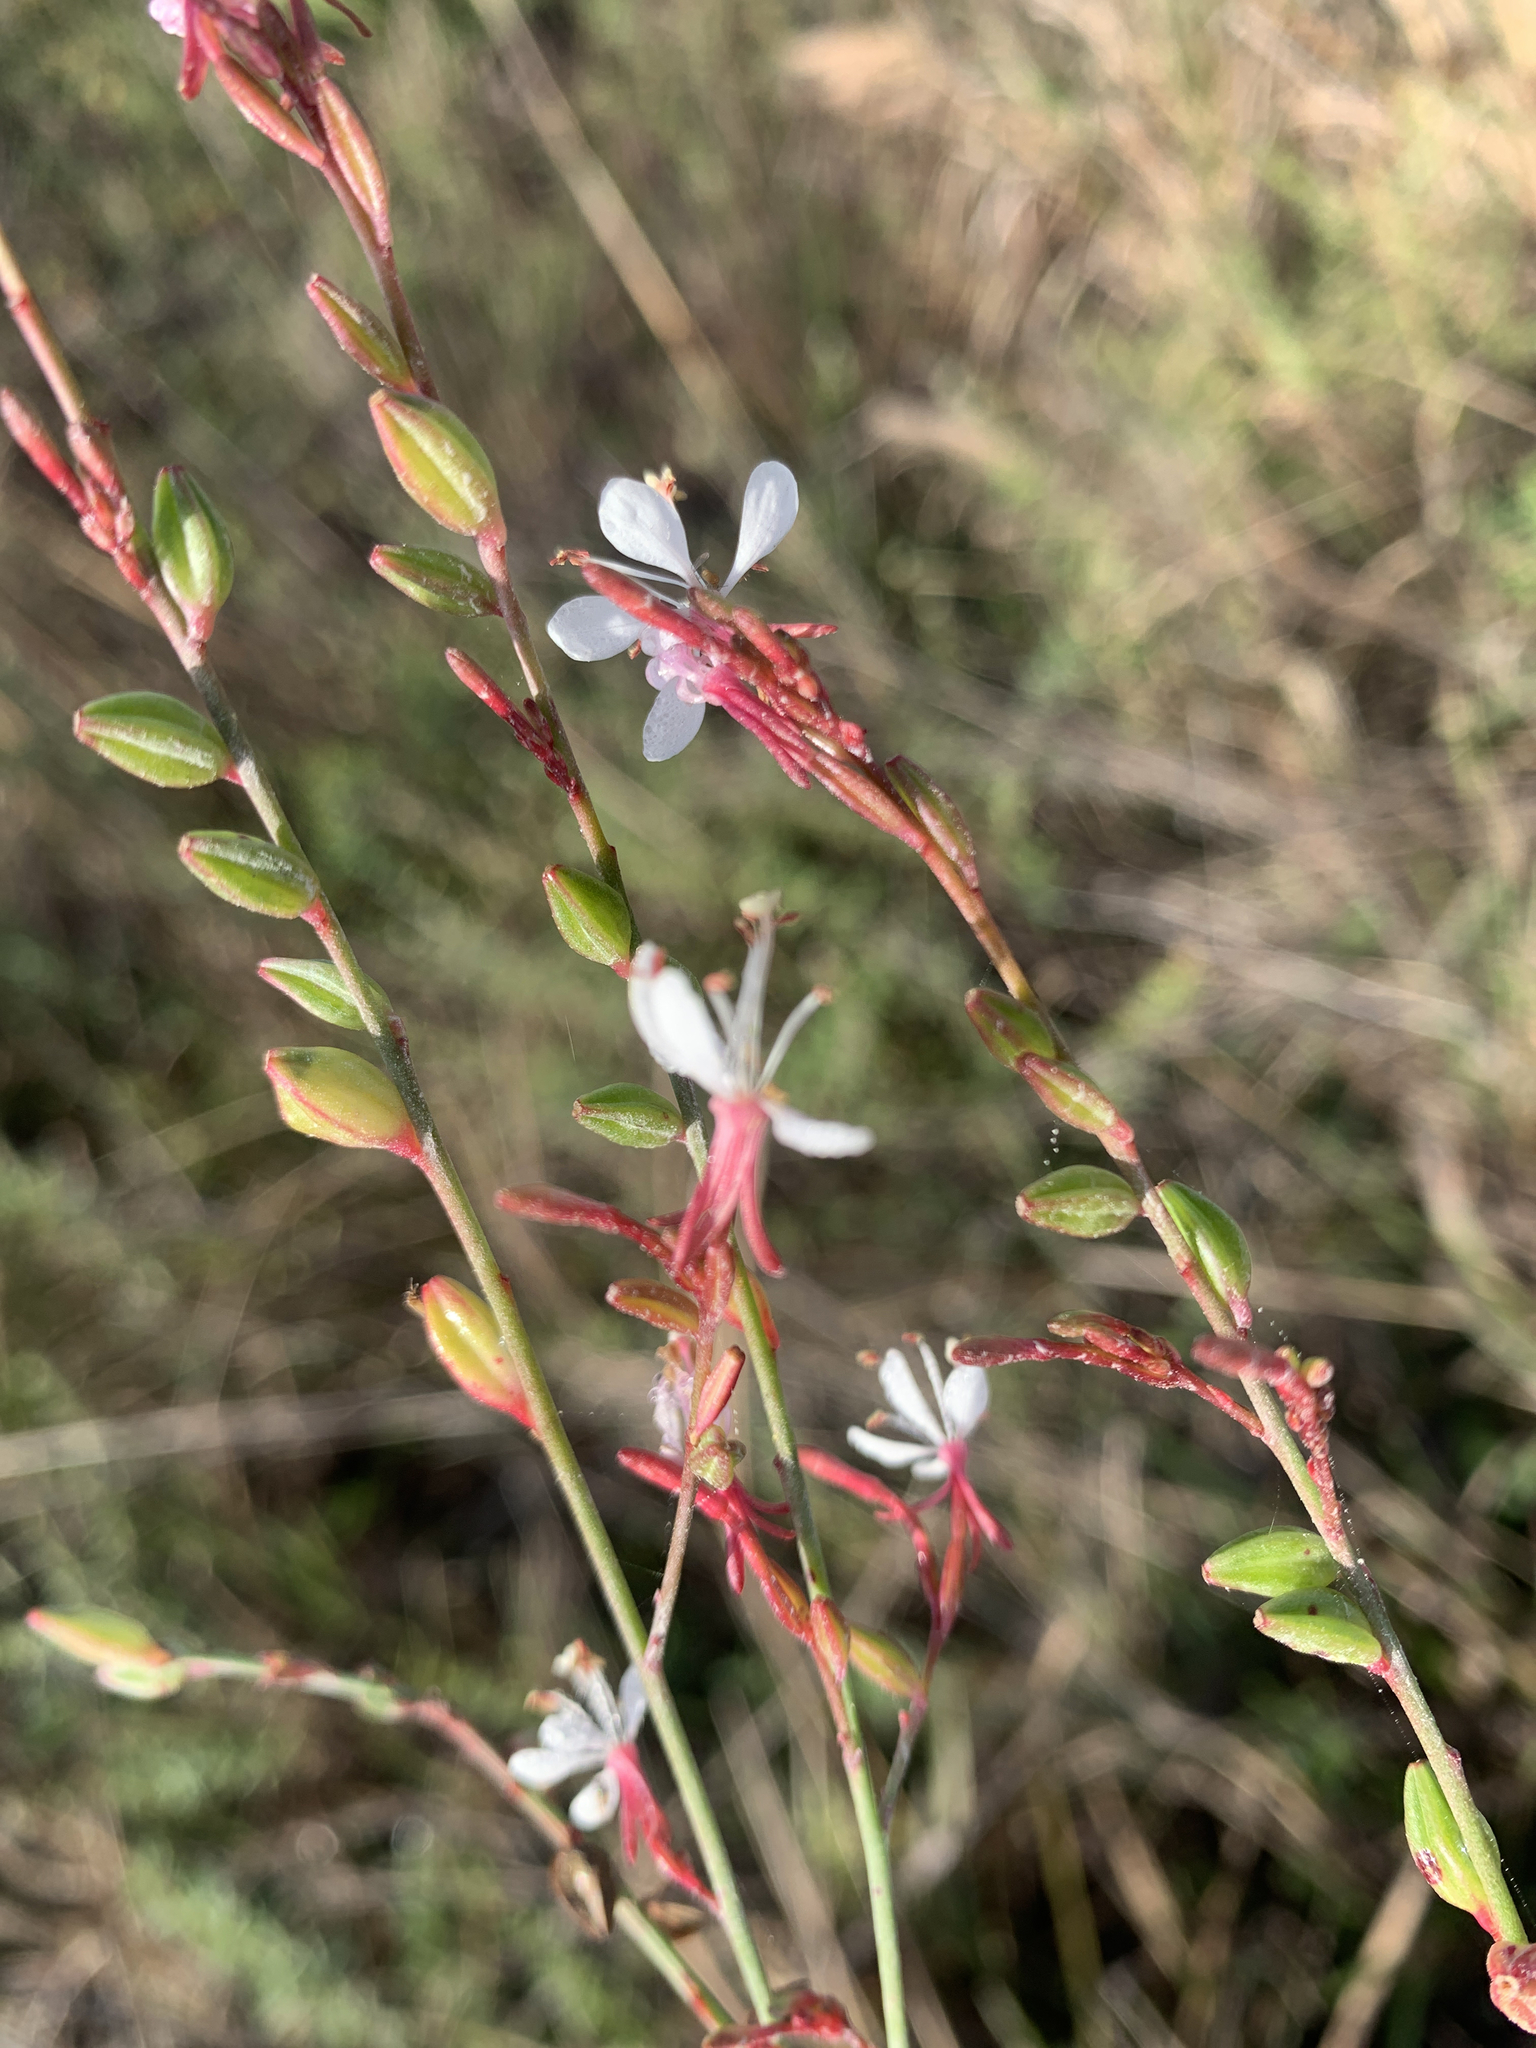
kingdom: Plantae
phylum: Tracheophyta
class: Magnoliopsida
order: Myrtales
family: Onagraceae
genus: Oenothera
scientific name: Oenothera simulans
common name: Southern beeblossom
